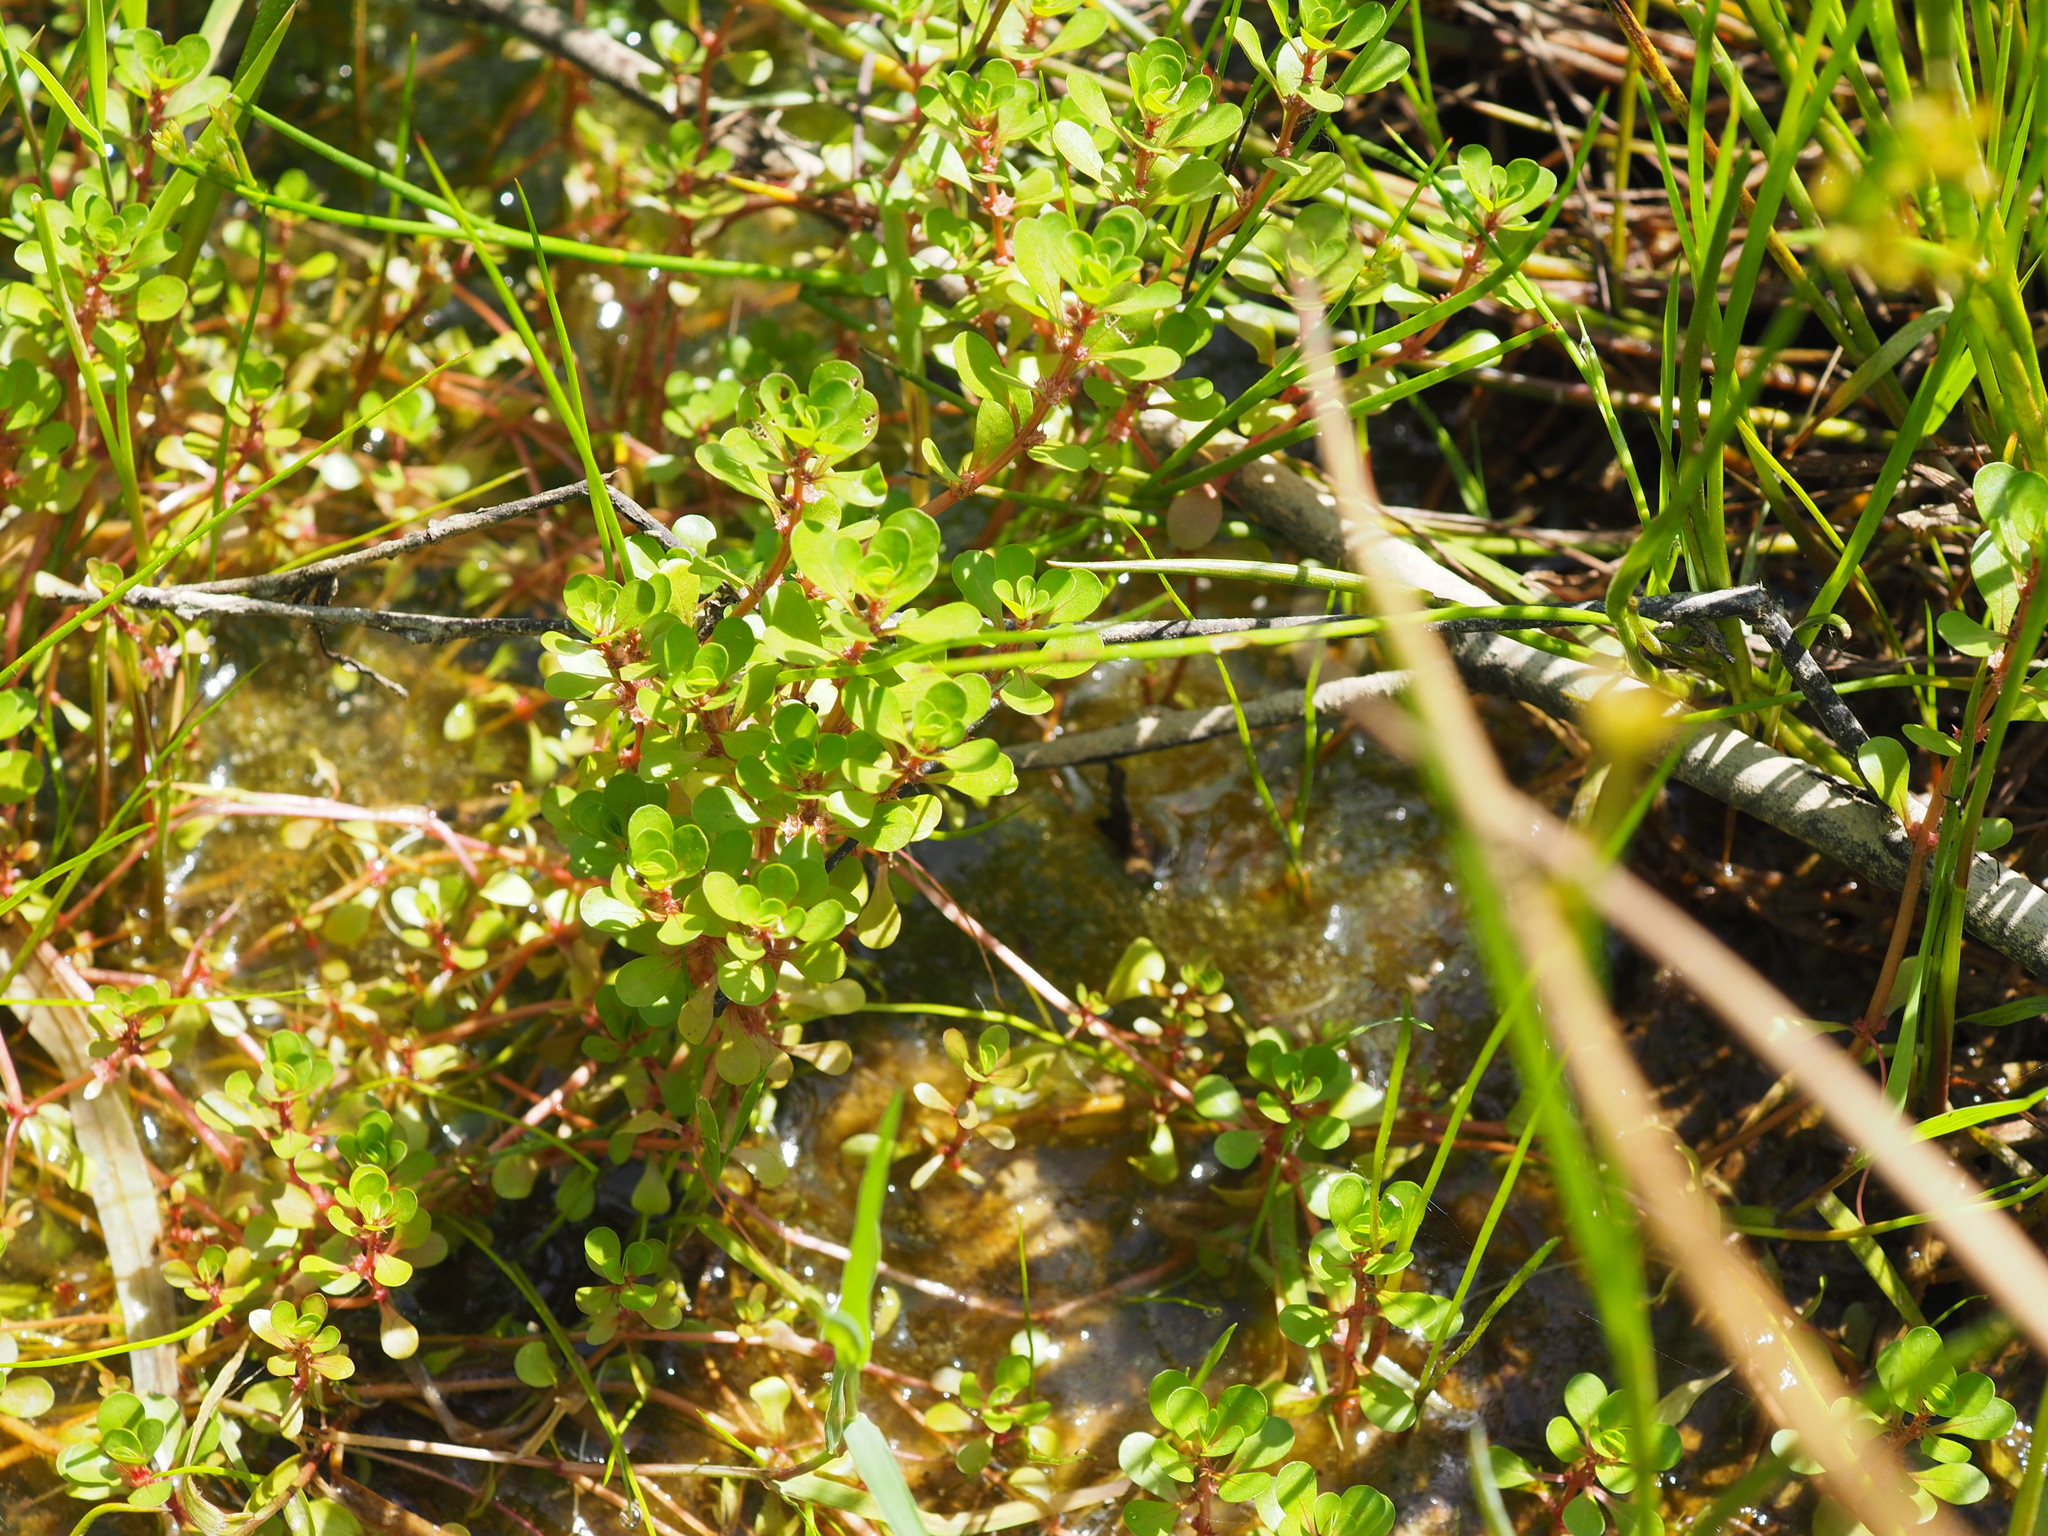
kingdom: Plantae
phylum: Tracheophyta
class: Magnoliopsida
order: Myrtales
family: Lythraceae
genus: Lythrum
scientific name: Lythrum portula
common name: Water purslane
